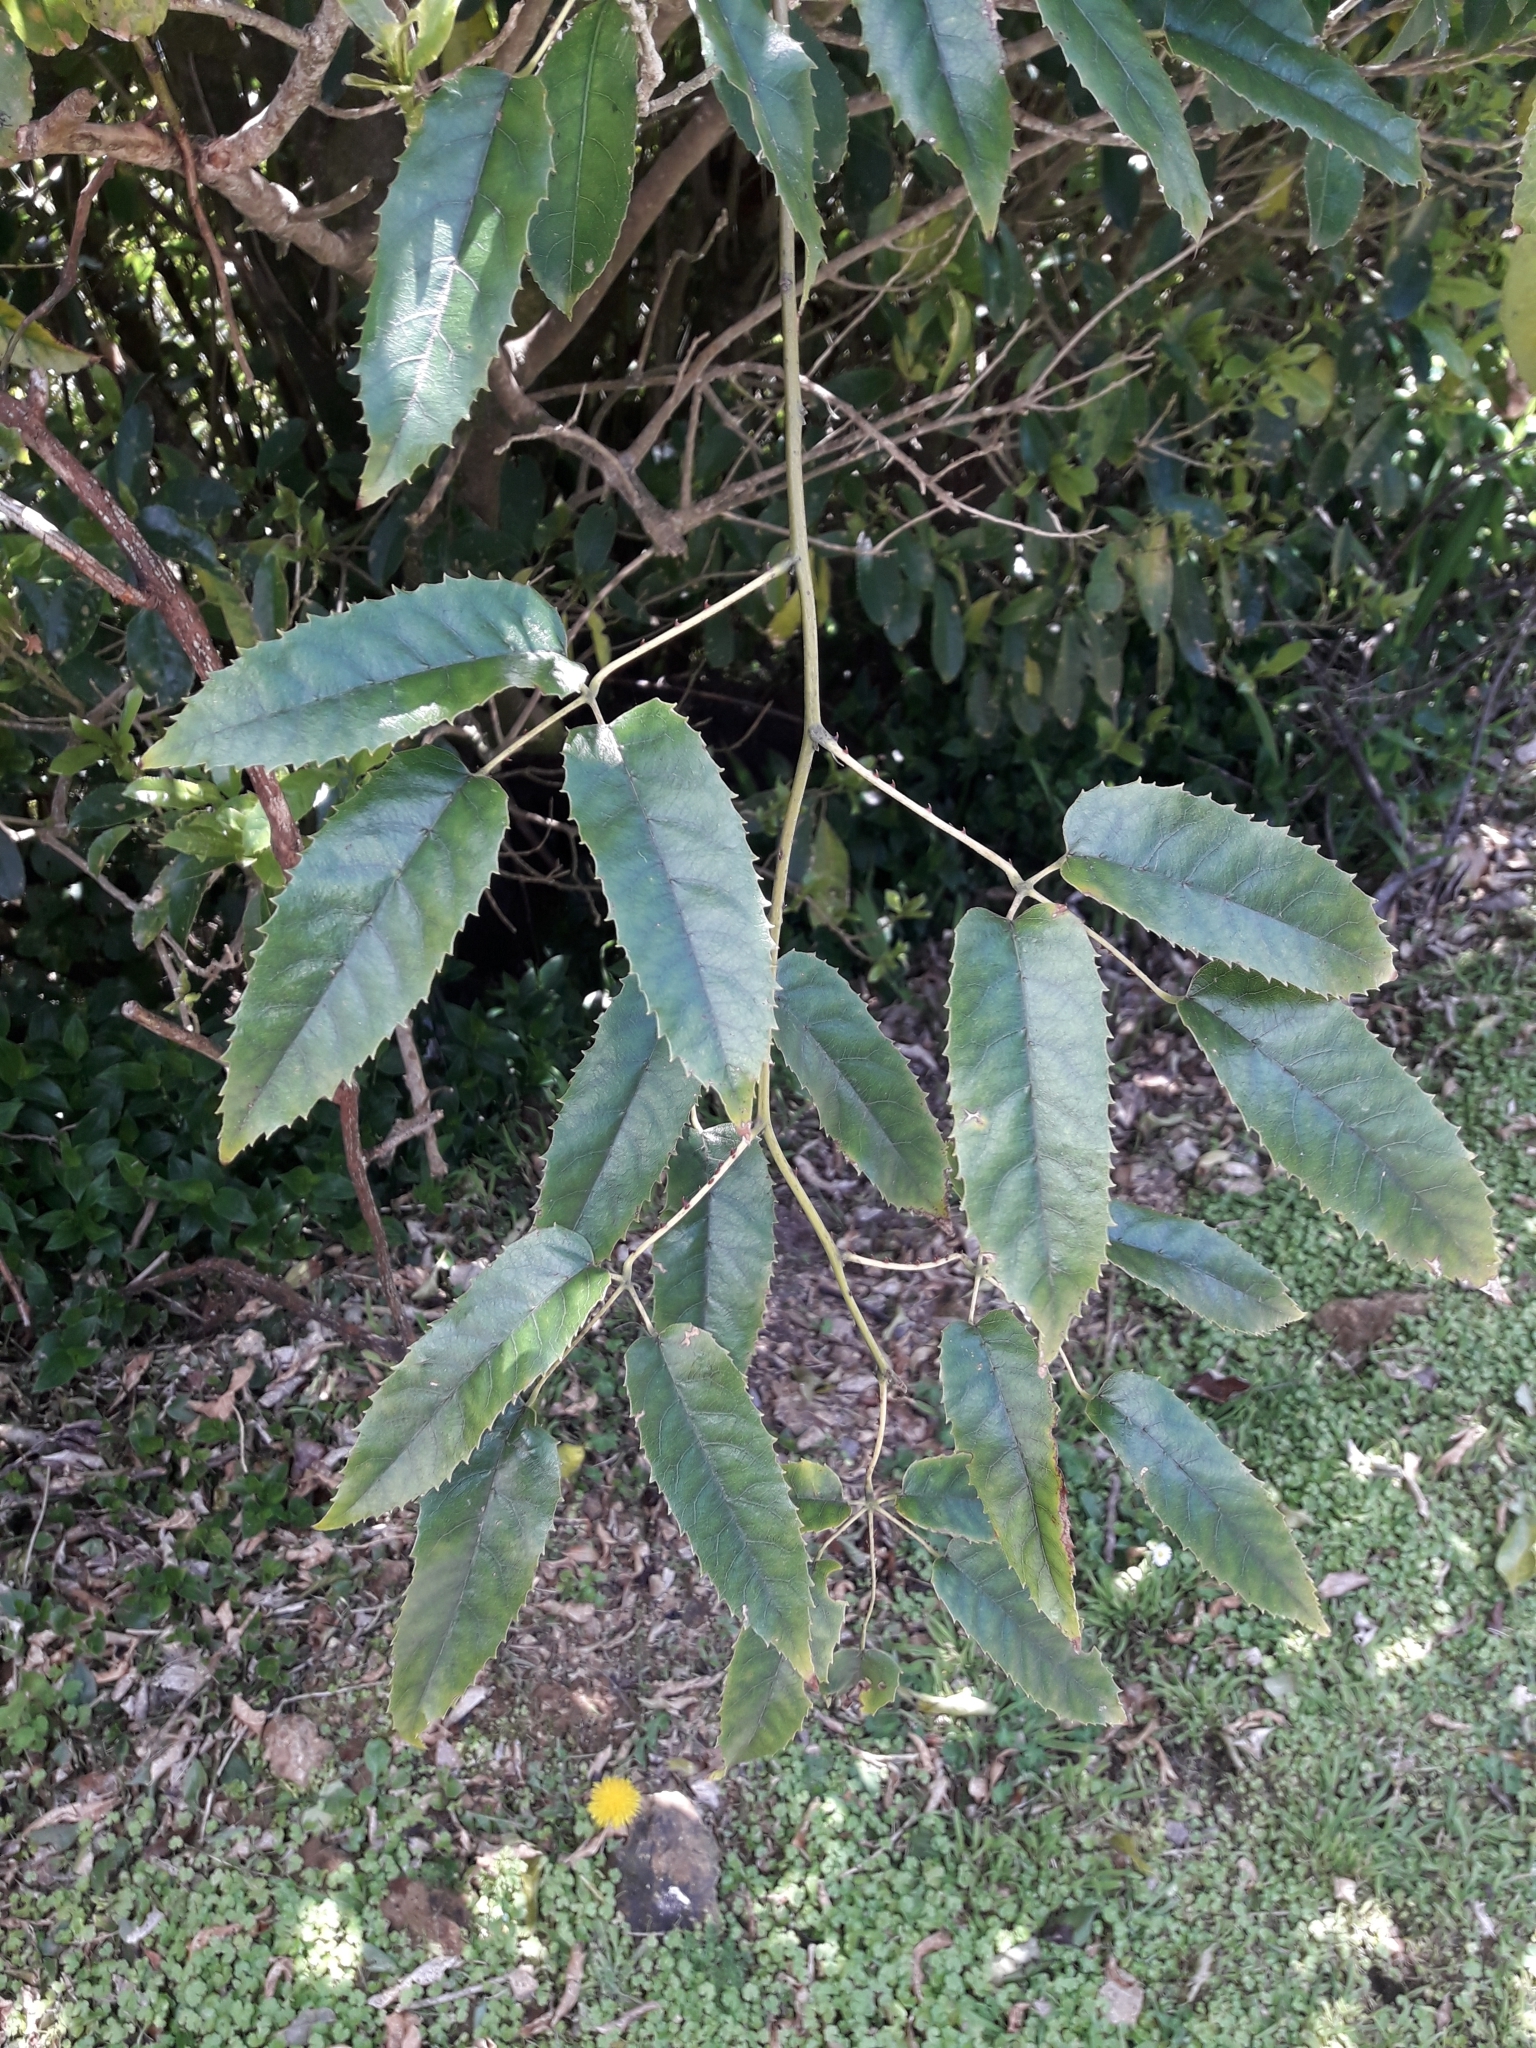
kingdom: Plantae
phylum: Tracheophyta
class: Magnoliopsida
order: Rosales
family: Rosaceae
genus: Rubus
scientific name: Rubus cissoides
